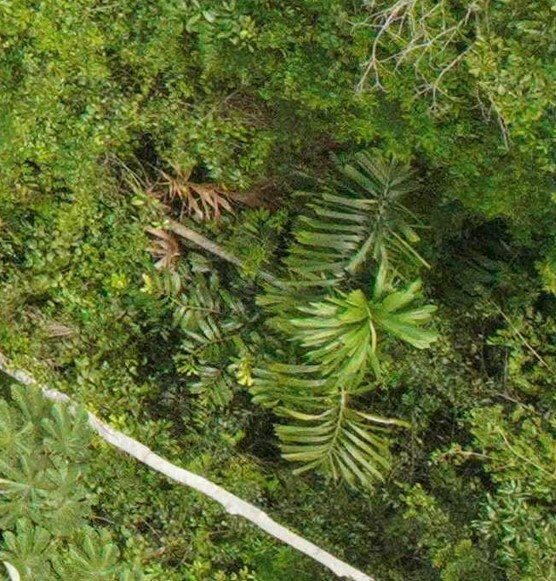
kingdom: Plantae
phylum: Tracheophyta
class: Liliopsida
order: Arecales
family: Arecaceae
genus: Socratea
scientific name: Socratea exorrhiza
